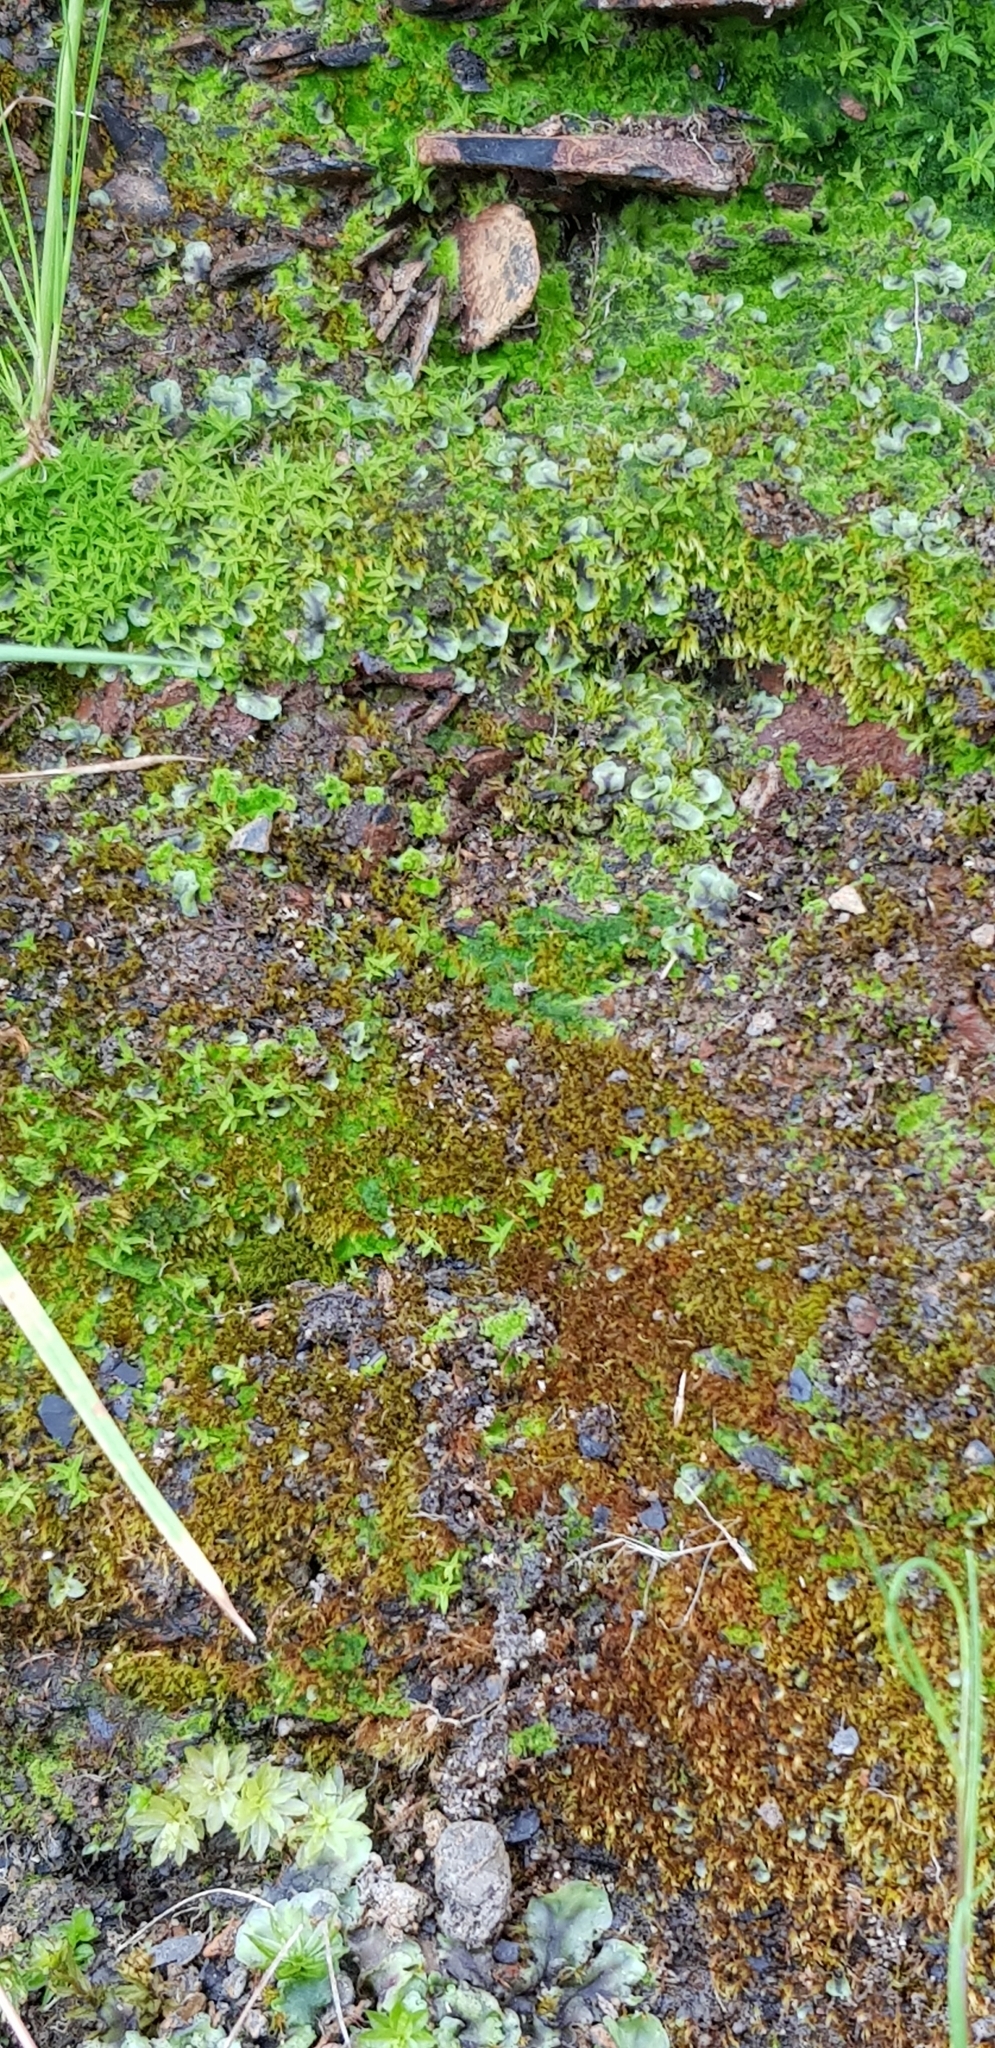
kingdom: Plantae
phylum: Bryophyta
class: Bryopsida
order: Dicranales
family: Dicranellaceae
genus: Dicranella
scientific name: Dicranella rufescens
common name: Red forklet moss
